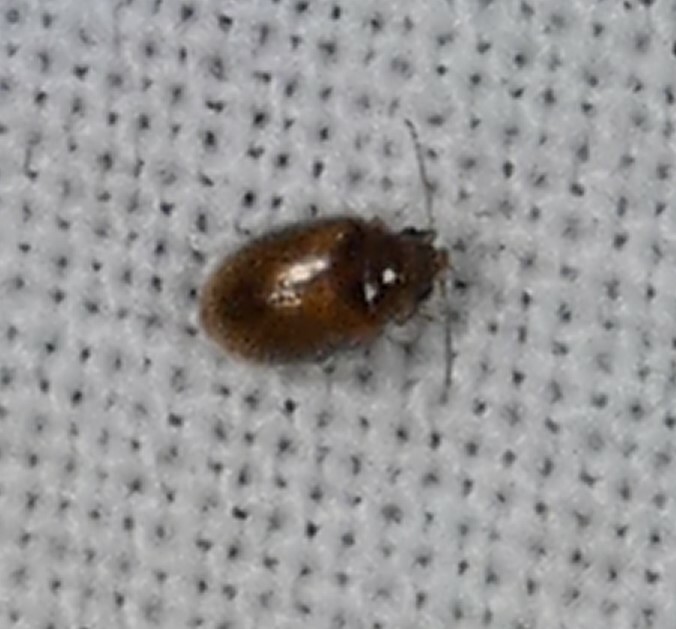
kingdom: Animalia
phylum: Arthropoda
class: Insecta
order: Coleoptera
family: Scirtidae
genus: Contacyphon
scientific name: Contacyphon
